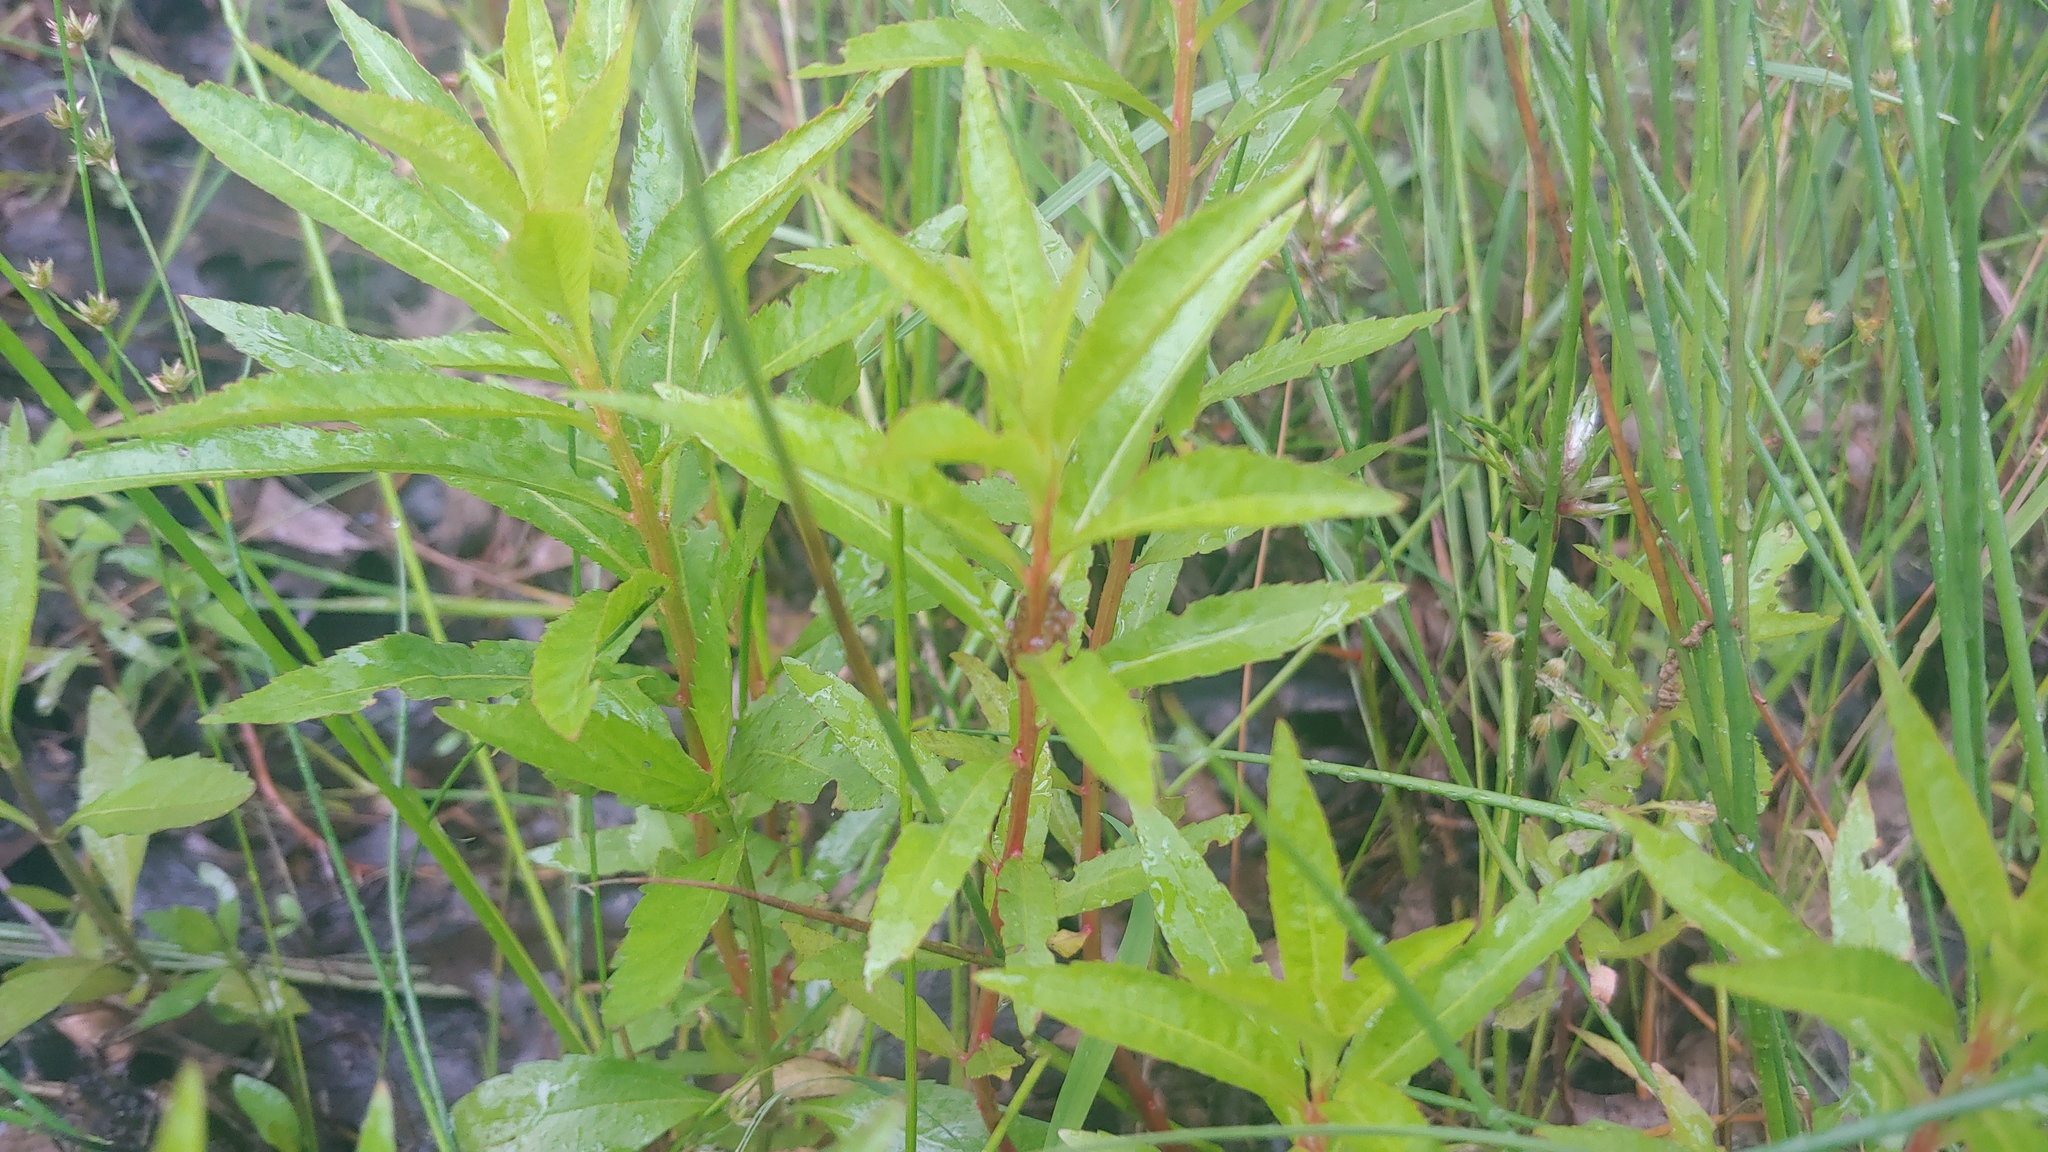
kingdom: Plantae
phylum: Tracheophyta
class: Magnoliopsida
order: Saxifragales
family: Penthoraceae
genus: Penthorum
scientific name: Penthorum sedoides
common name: Ditch stonecrop
